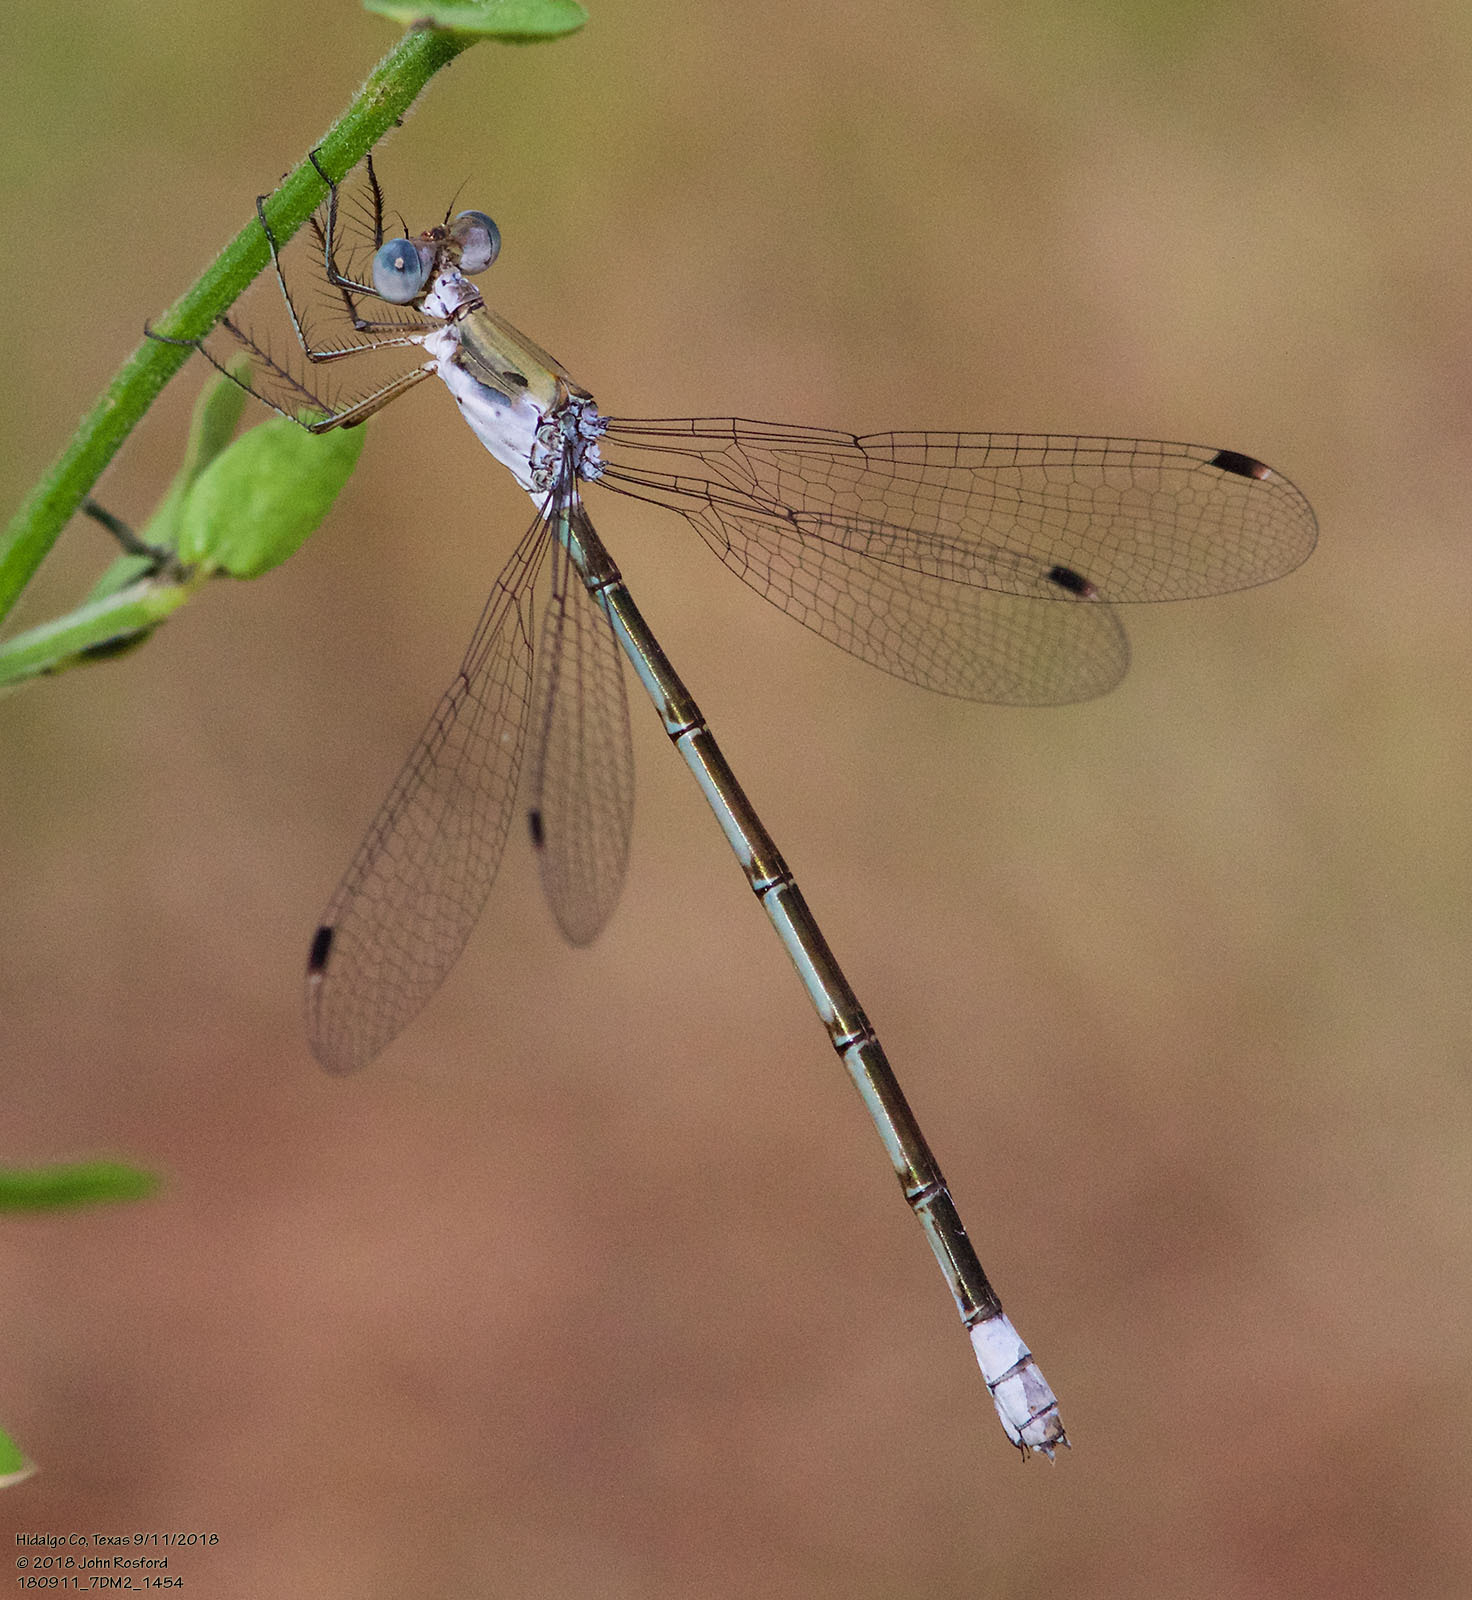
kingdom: Animalia
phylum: Arthropoda
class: Insecta
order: Odonata
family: Lestidae
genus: Lestes
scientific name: Lestes sigma
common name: Chalky spreadwing
